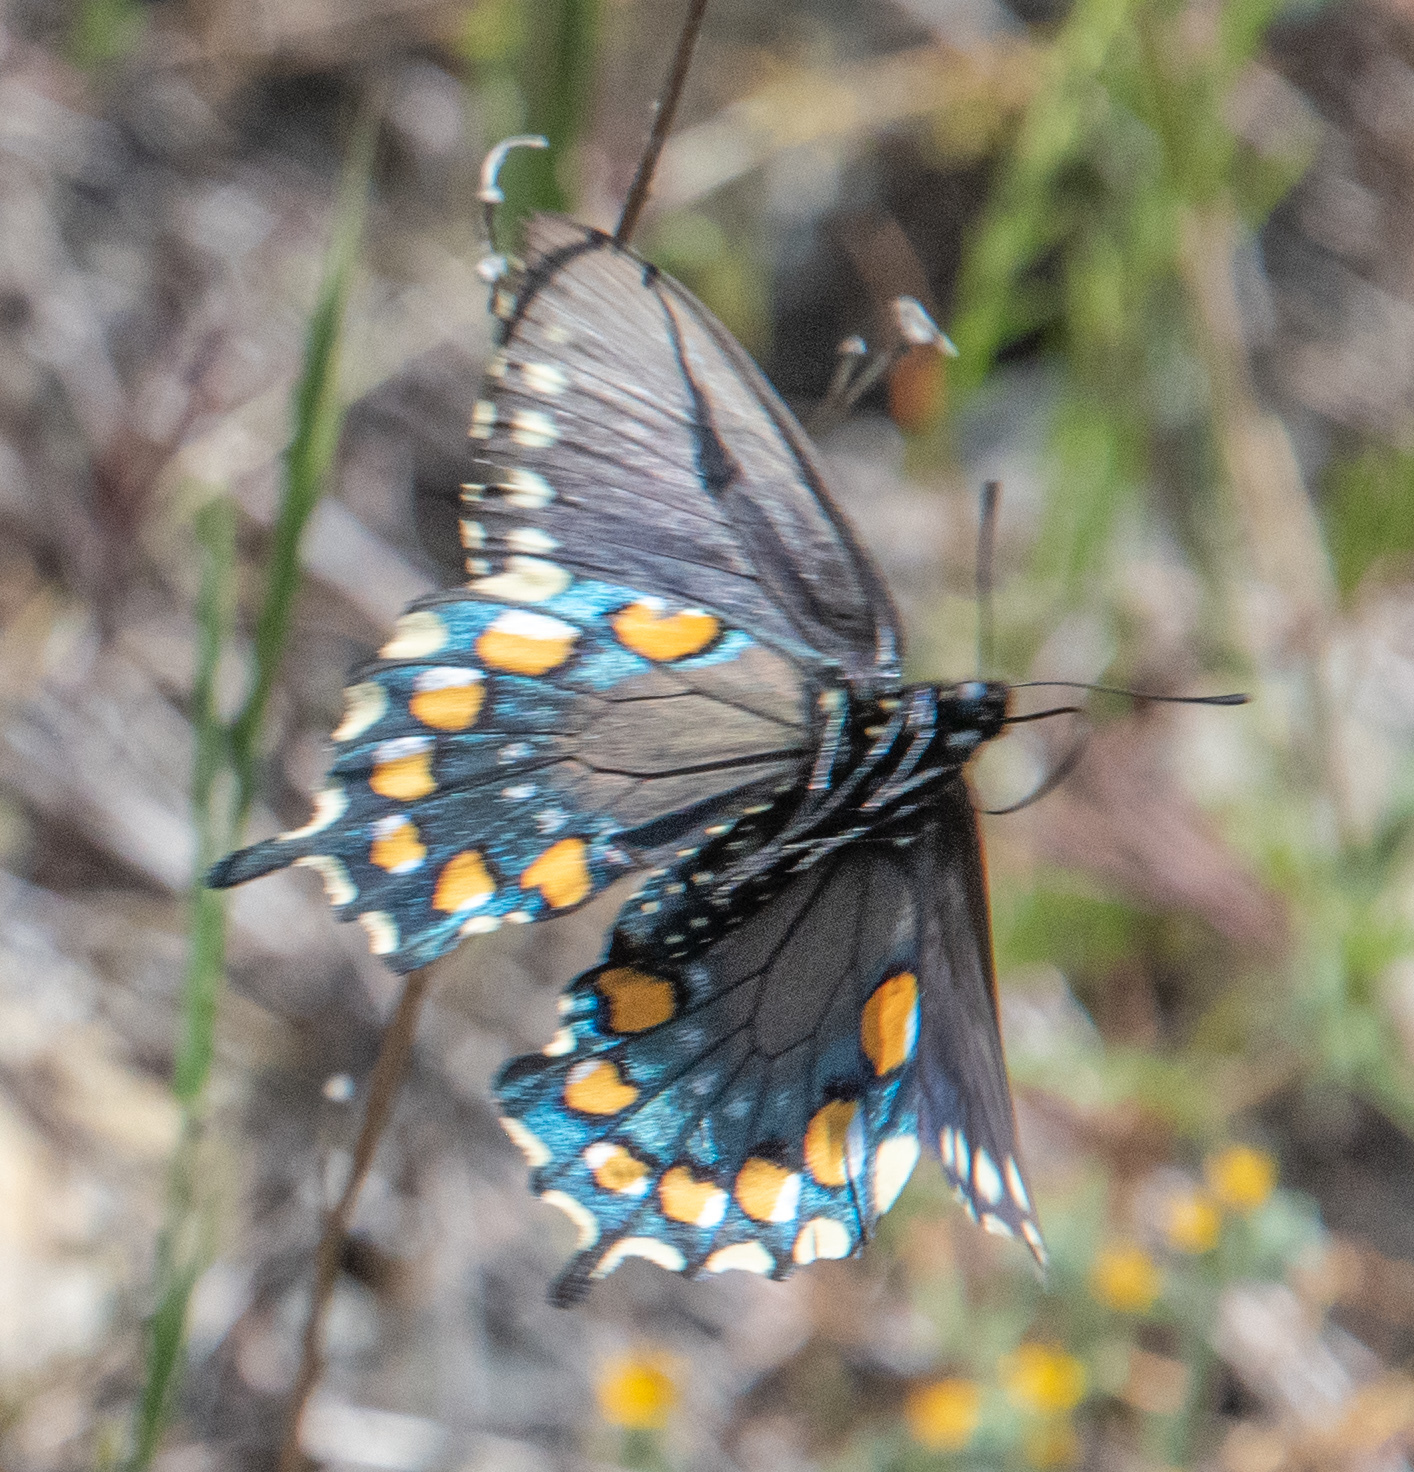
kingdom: Animalia
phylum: Arthropoda
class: Insecta
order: Lepidoptera
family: Papilionidae
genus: Battus
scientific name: Battus philenor
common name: Pipevine swallowtail
